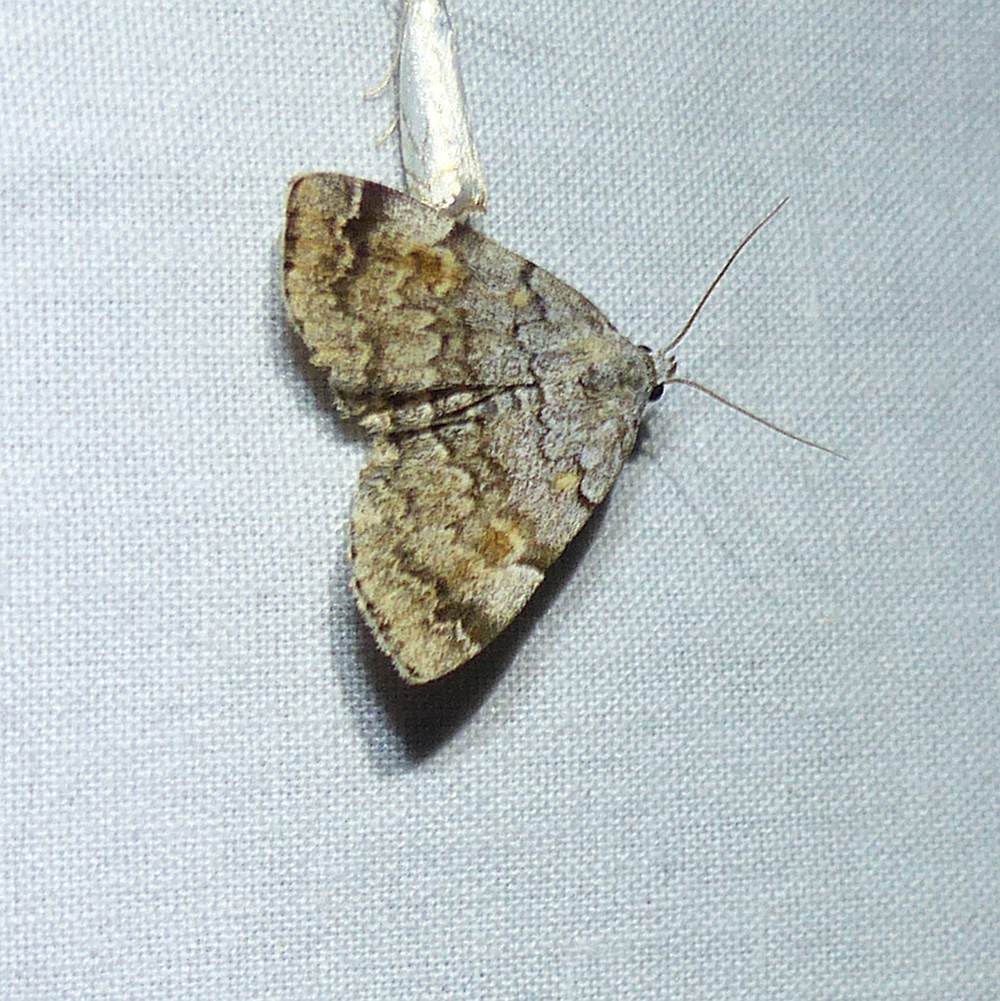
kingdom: Animalia
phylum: Arthropoda
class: Insecta
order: Lepidoptera
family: Erebidae
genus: Idia
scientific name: Idia americalis
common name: American idia moth
